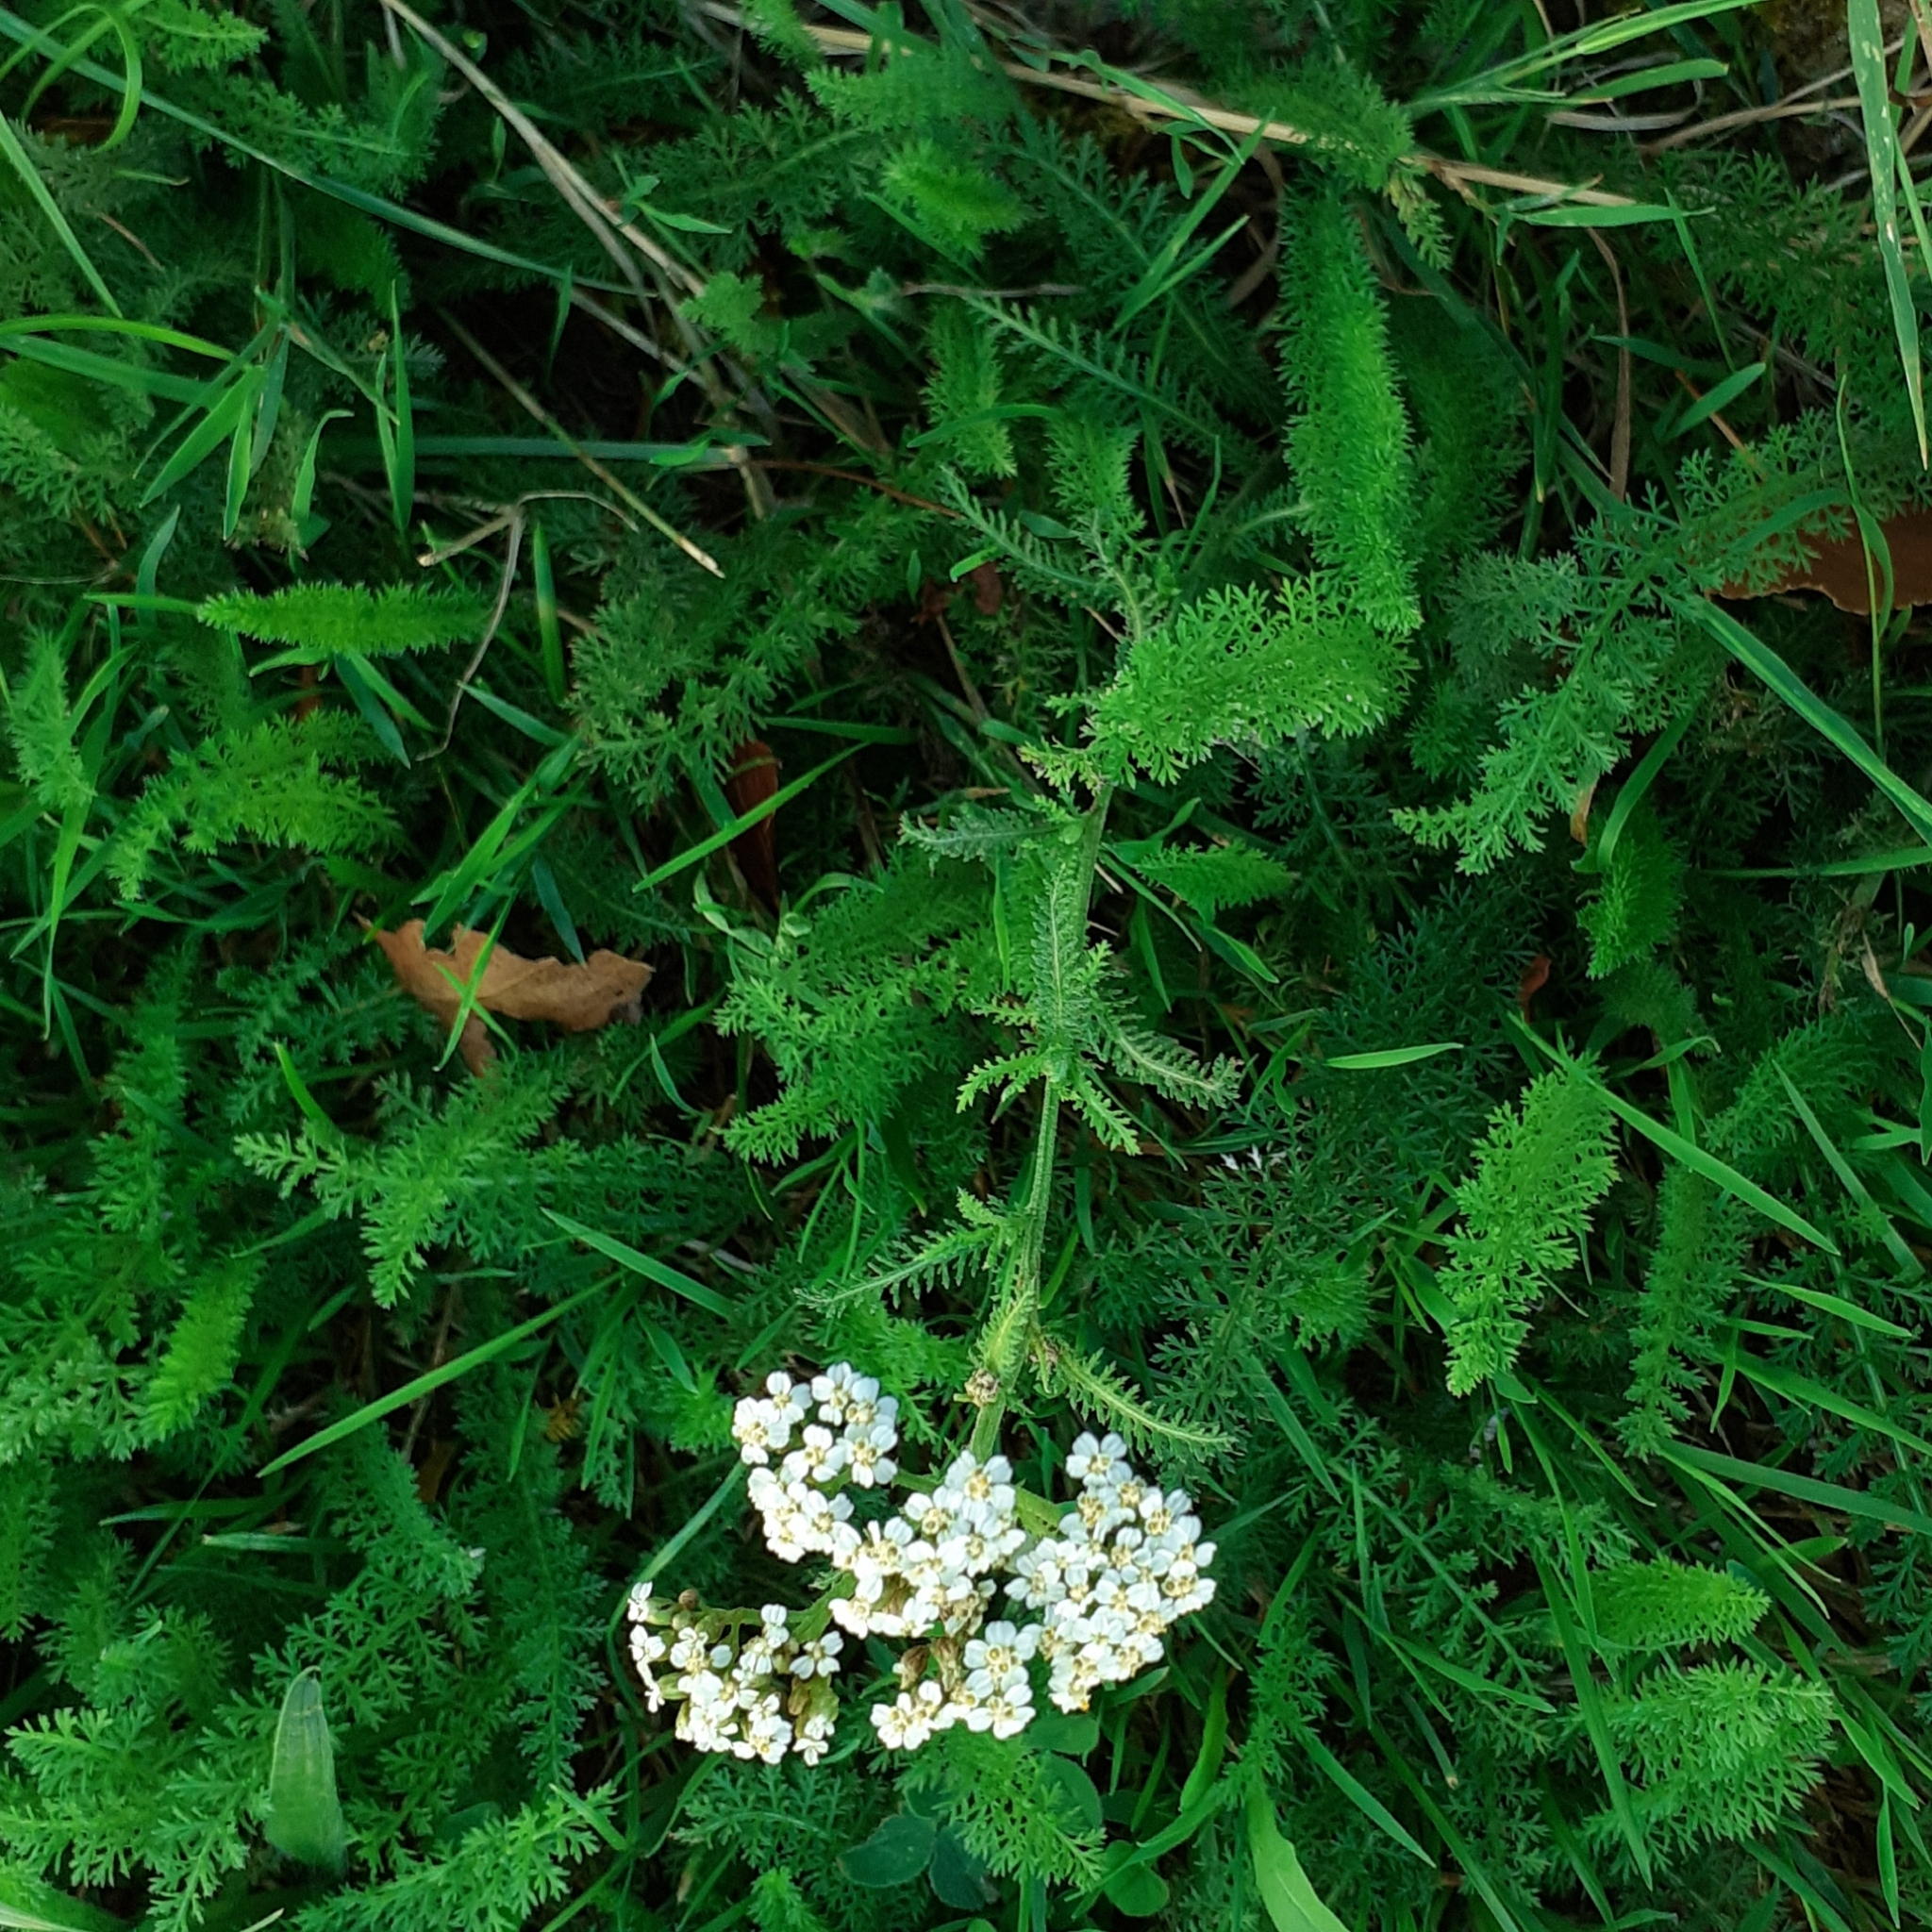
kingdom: Plantae
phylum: Tracheophyta
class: Magnoliopsida
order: Asterales
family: Asteraceae
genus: Achillea
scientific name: Achillea millefolium
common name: Yarrow
